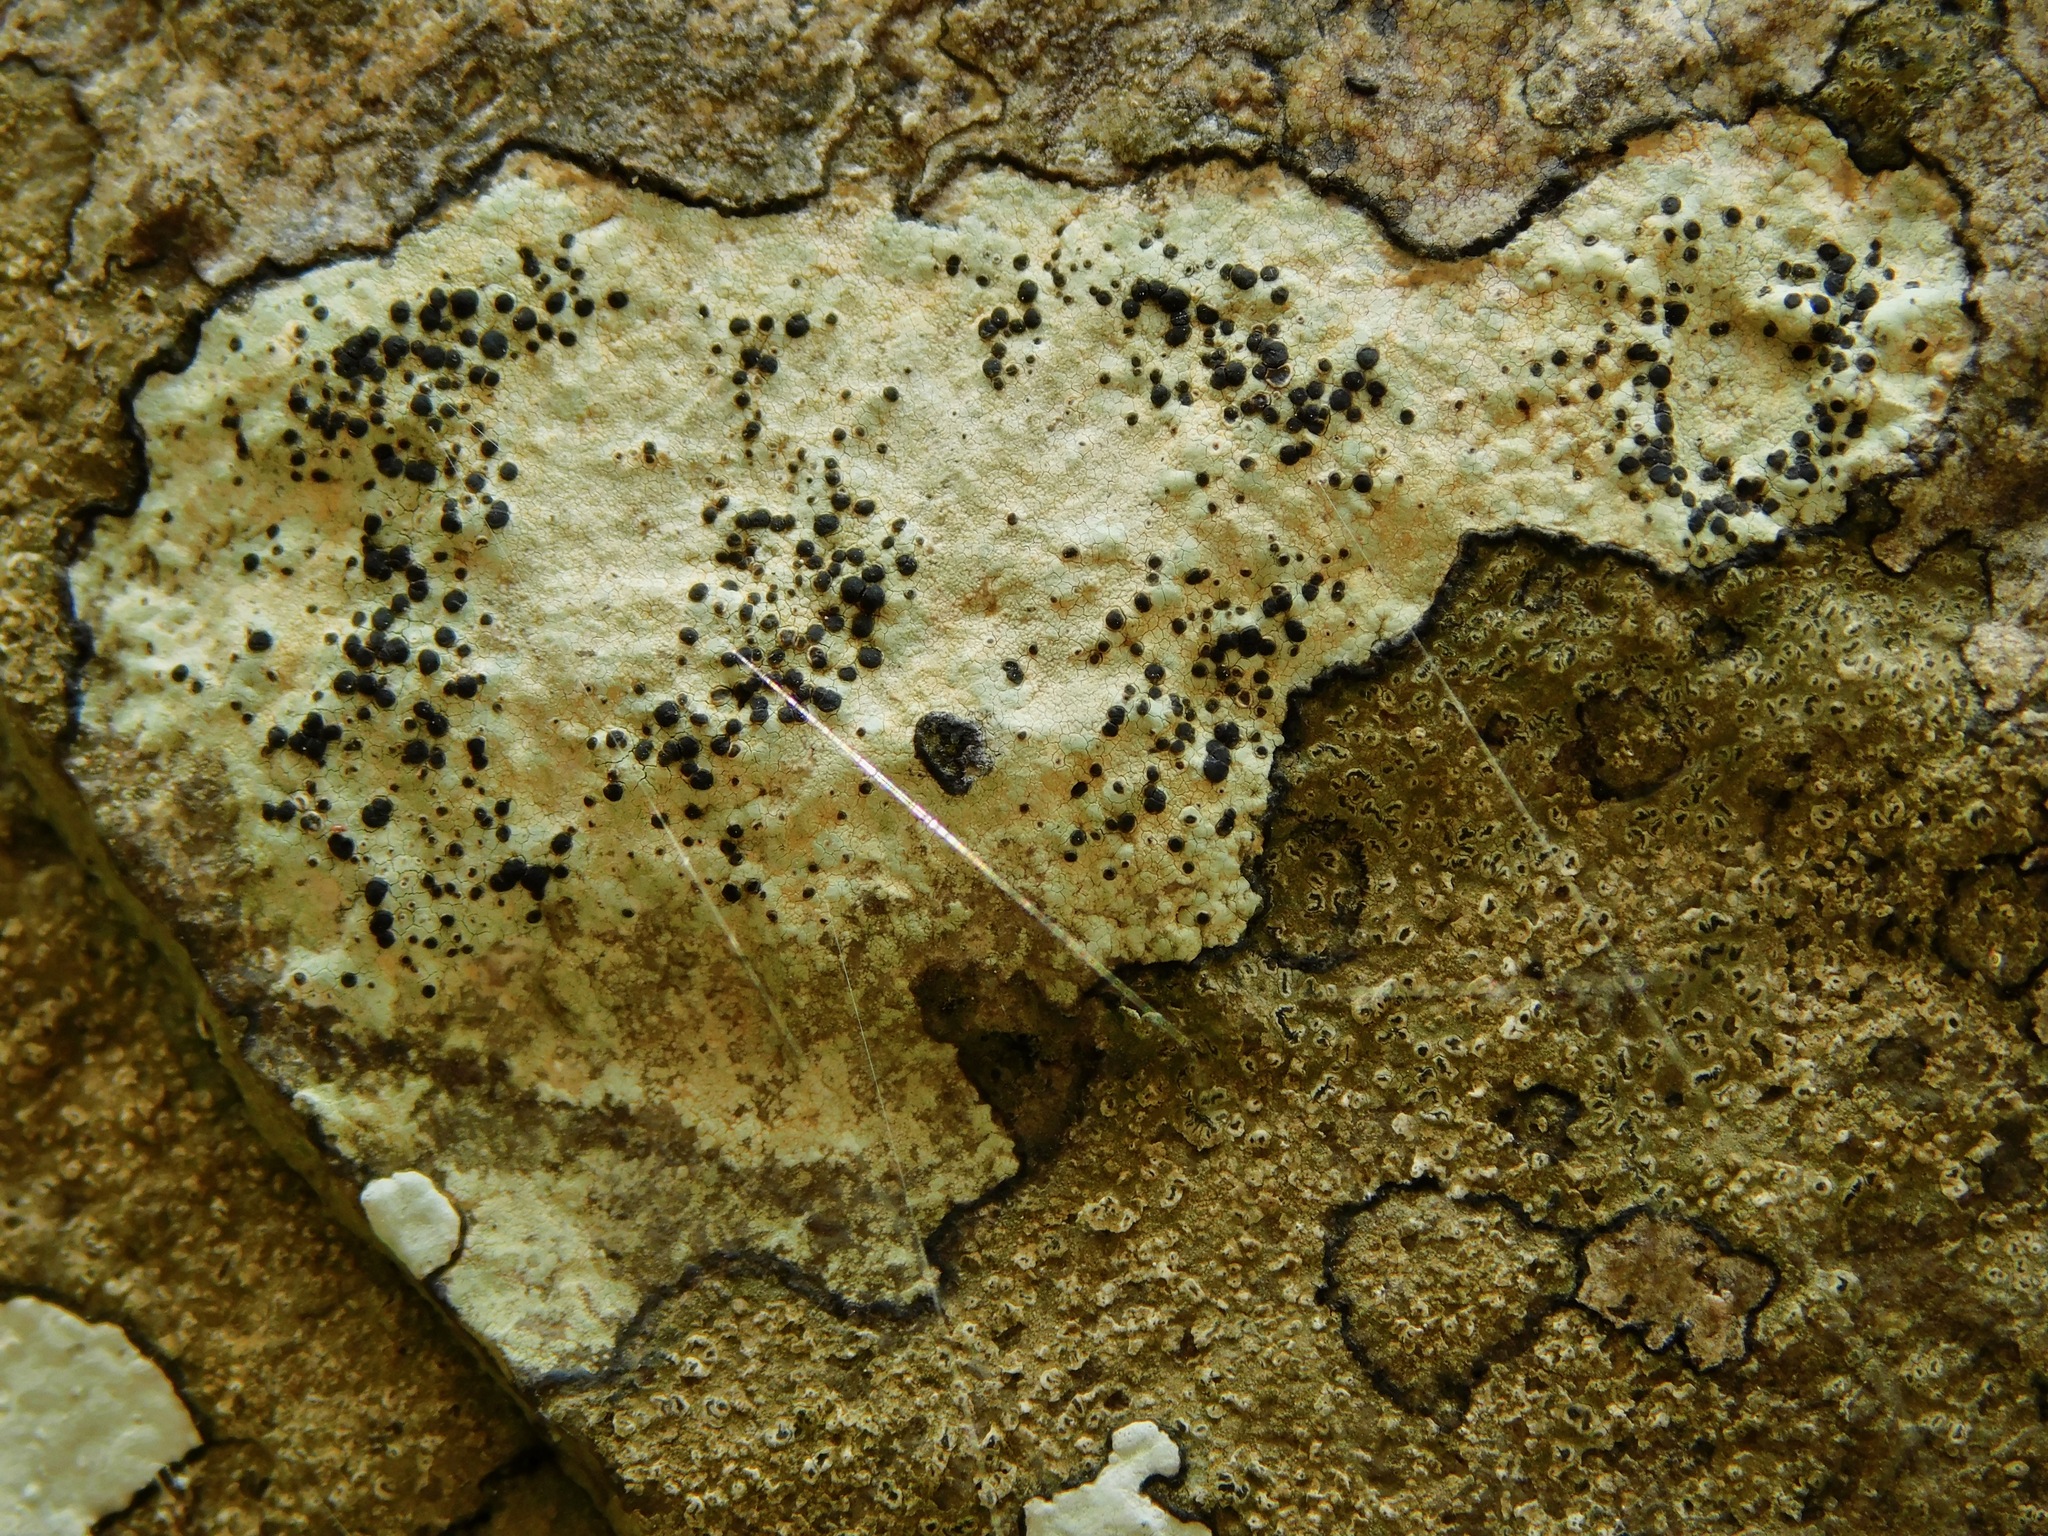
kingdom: Fungi
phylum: Ascomycota
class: Lecanoromycetes
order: Caliciales
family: Caliciaceae
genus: Buellia
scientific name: Buellia mamillana
